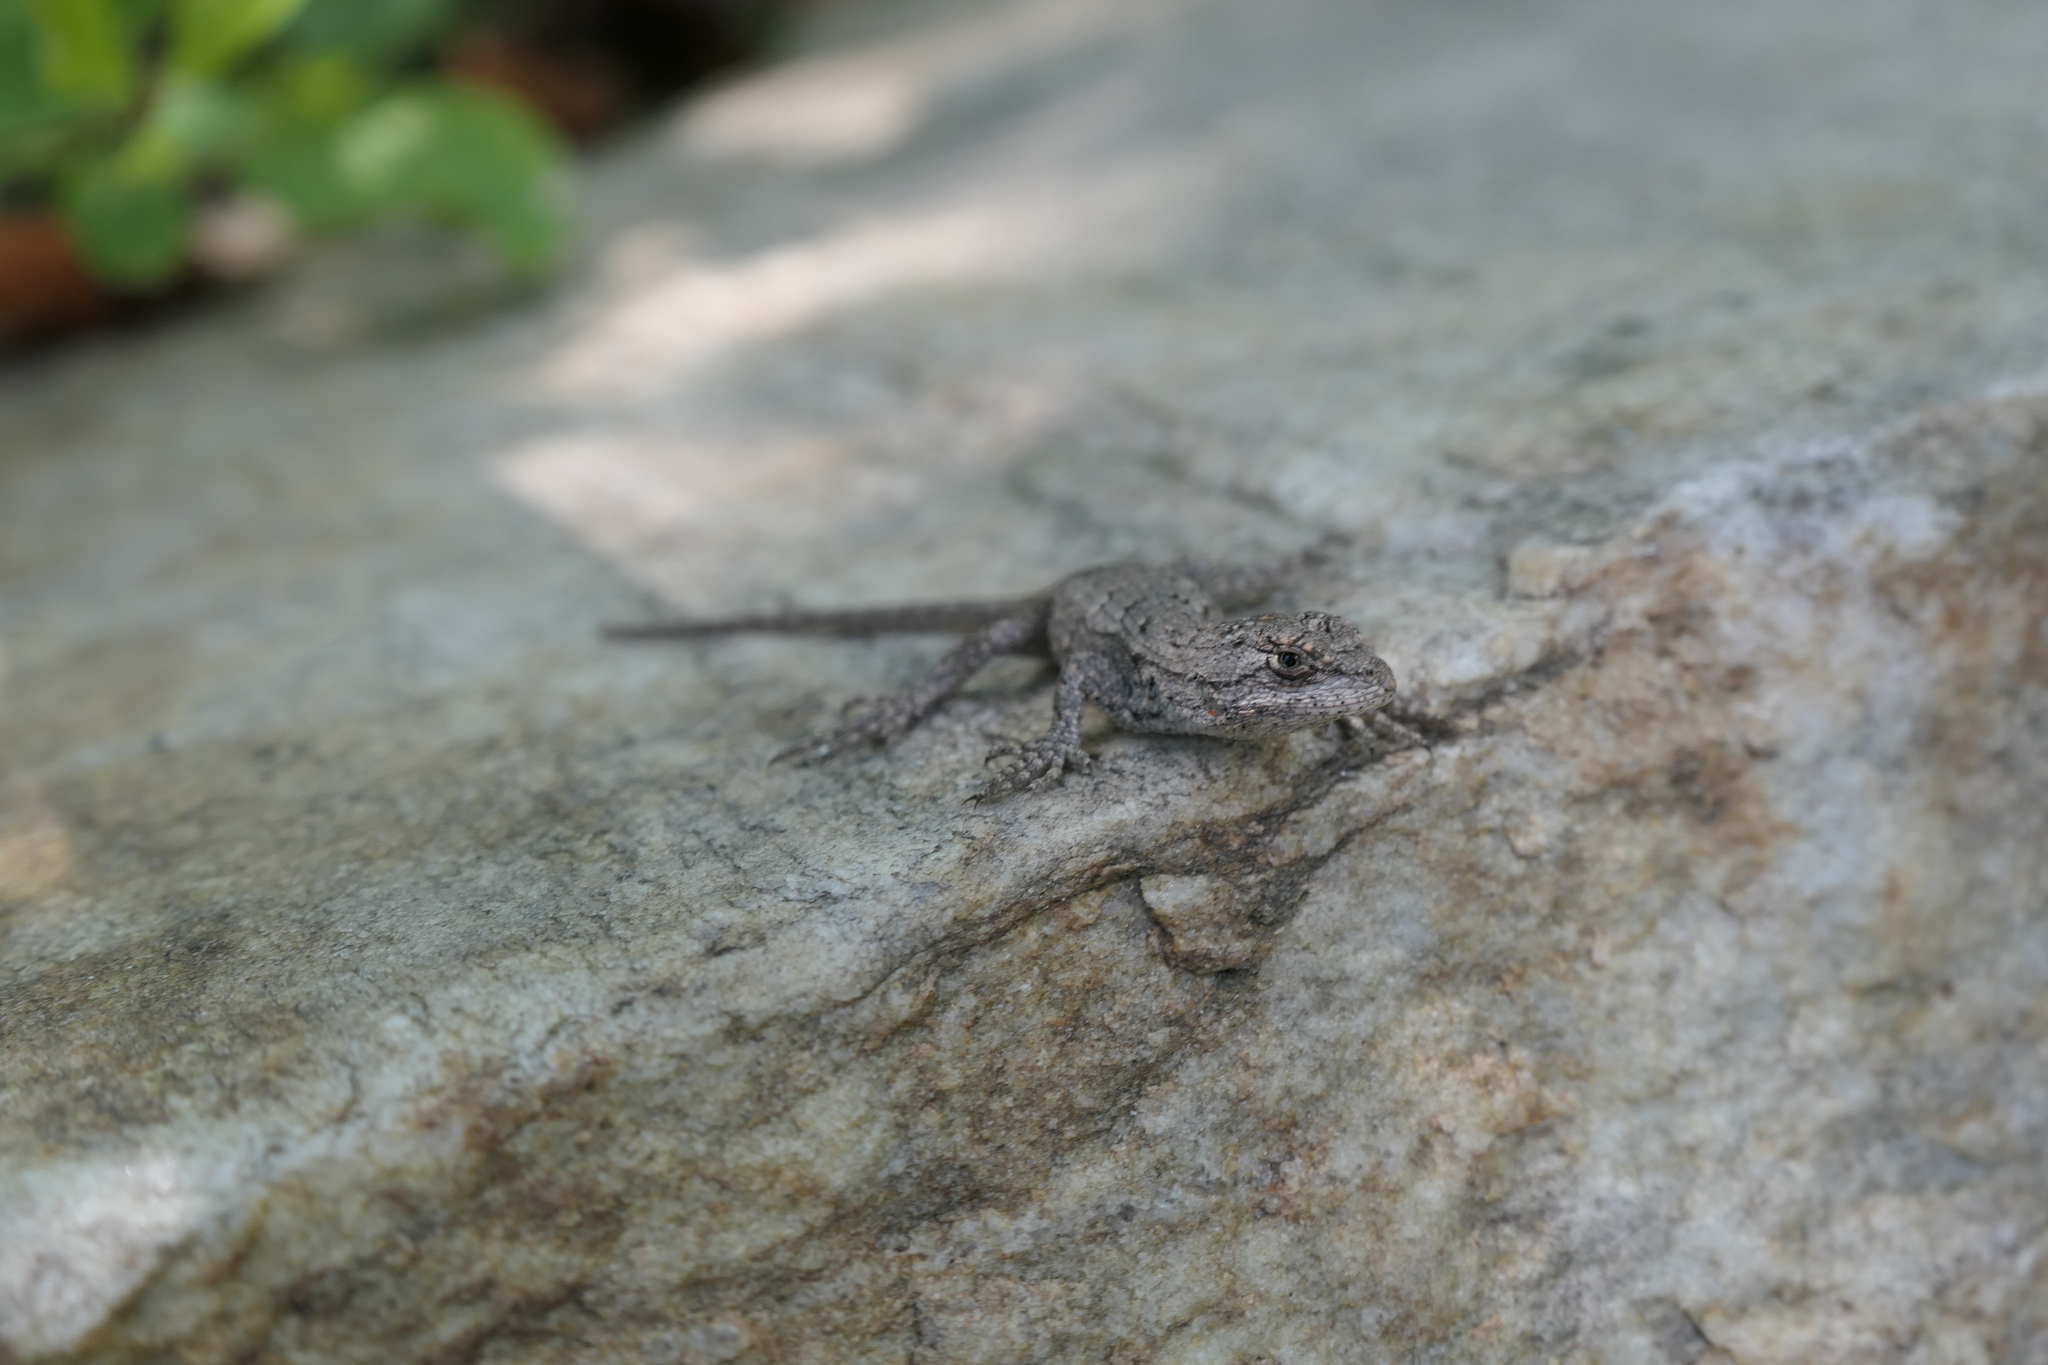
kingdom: Animalia
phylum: Chordata
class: Squamata
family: Phrynosomatidae
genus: Sceloporus
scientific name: Sceloporus undulatus
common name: Eastern fence lizard
